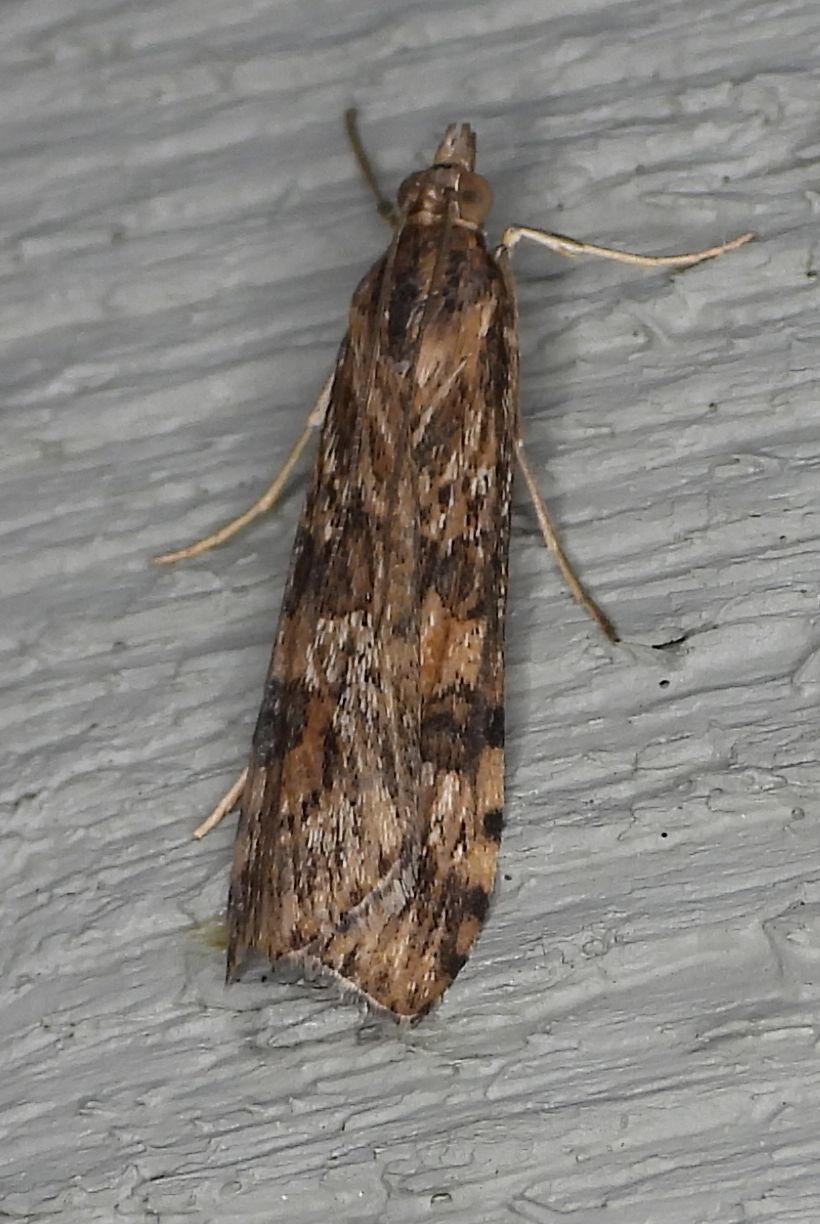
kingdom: Animalia
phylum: Arthropoda
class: Insecta
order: Lepidoptera
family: Crambidae
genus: Nomophila
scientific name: Nomophila nearctica
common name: American rush veneer
